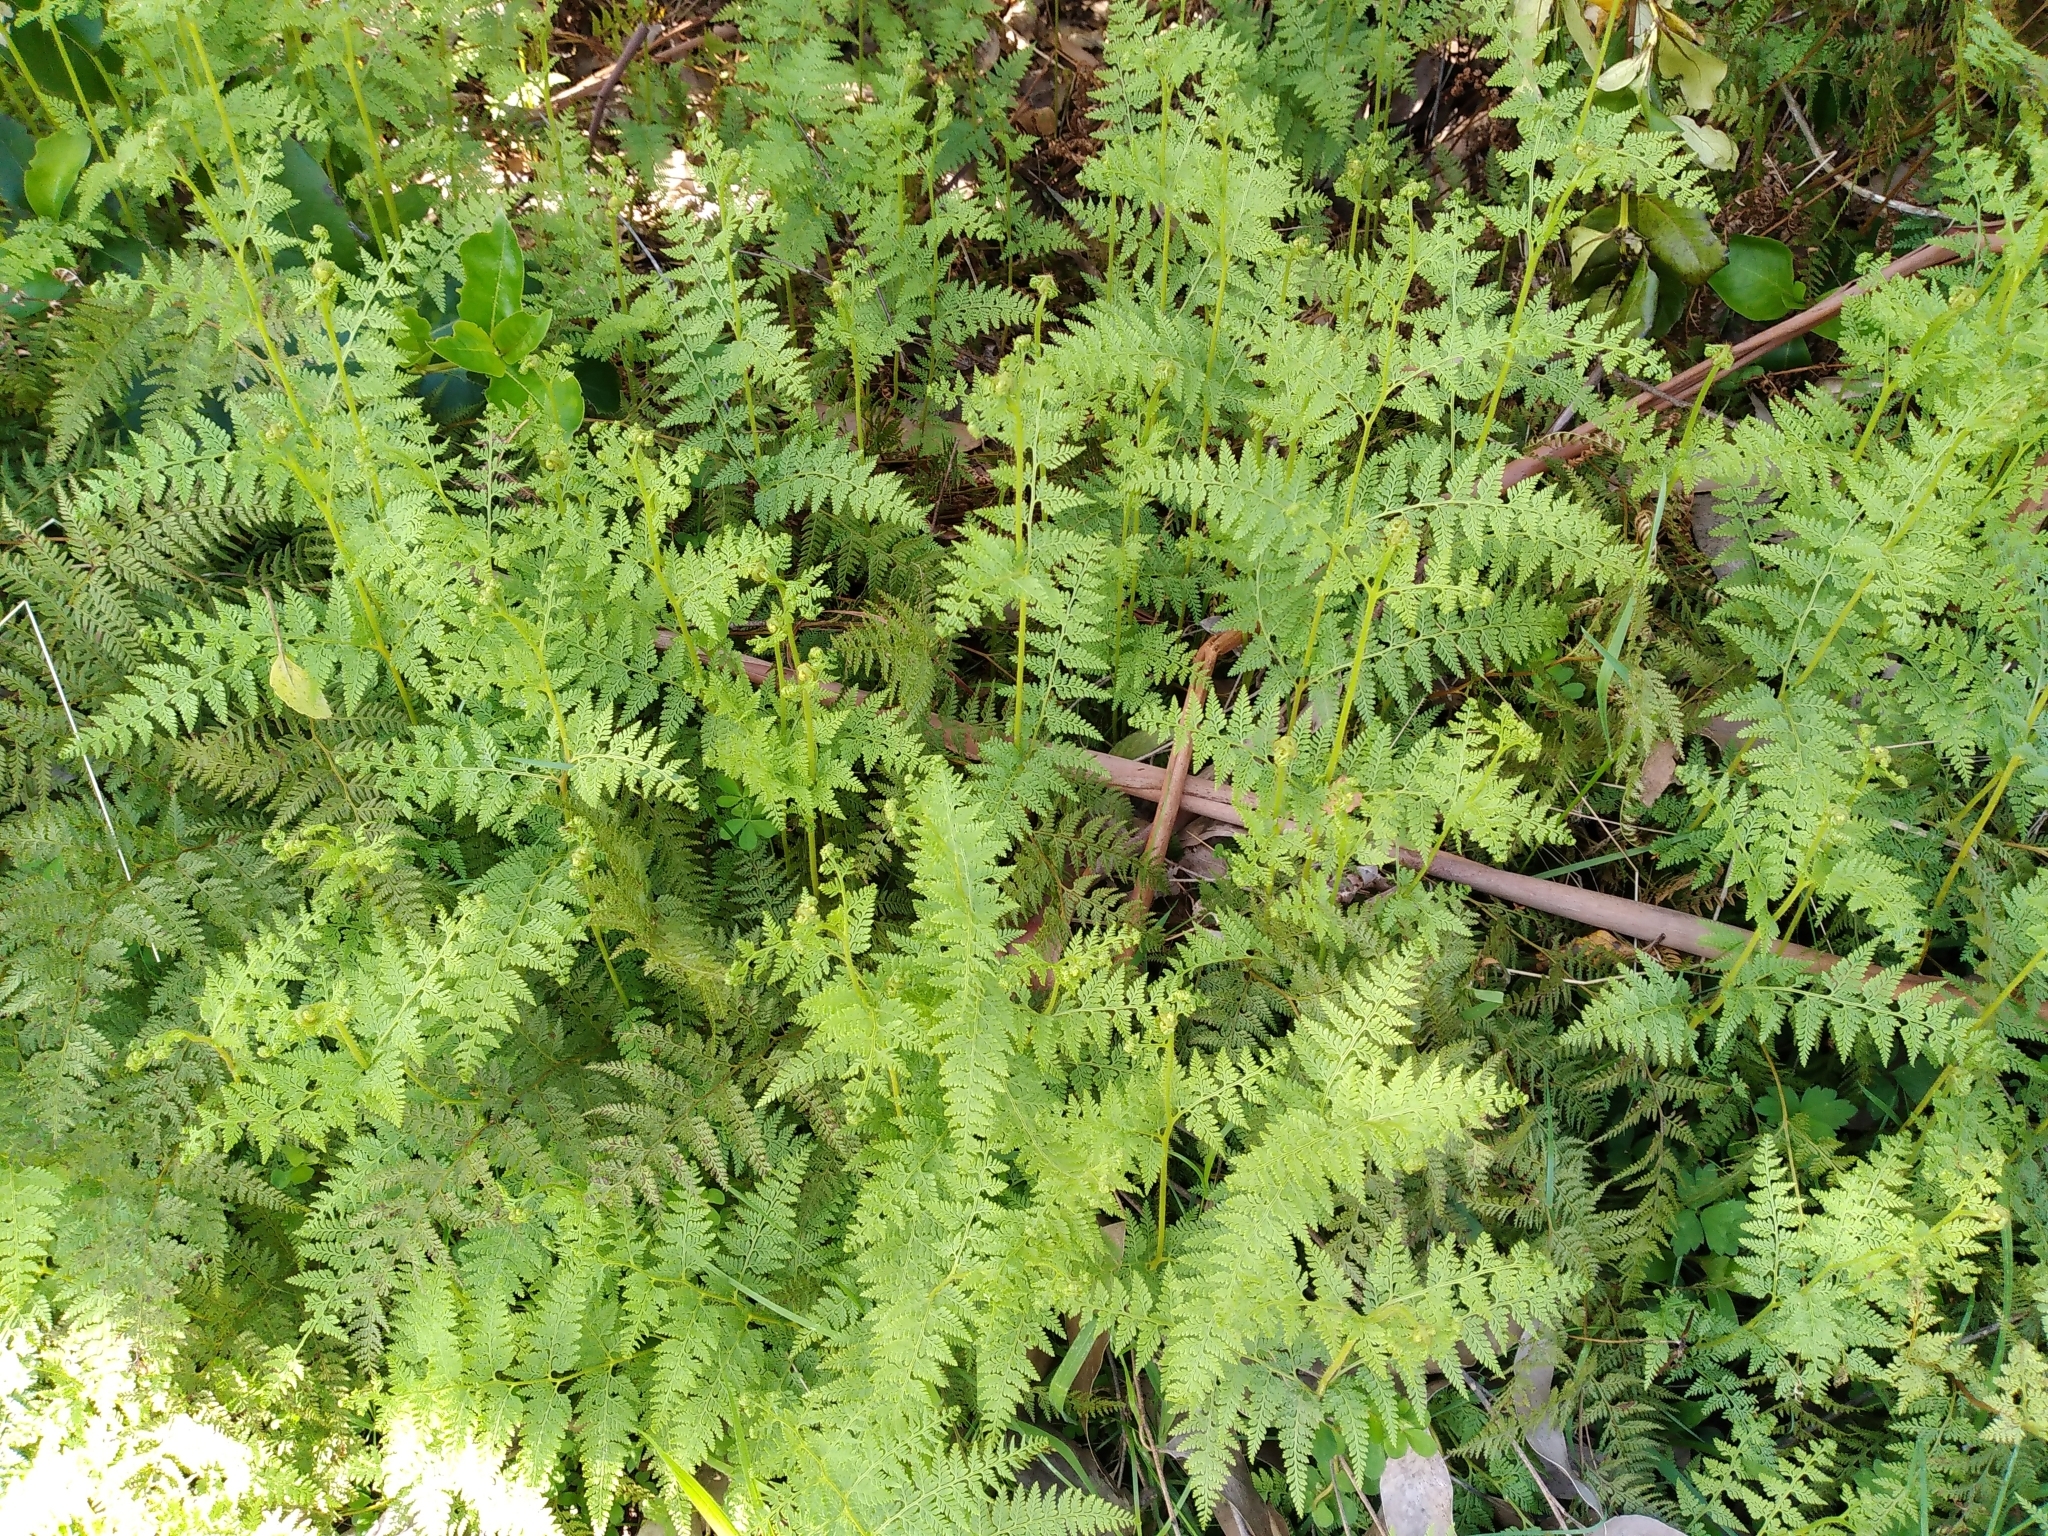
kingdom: Plantae
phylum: Tracheophyta
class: Polypodiopsida
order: Polypodiales
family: Dennstaedtiaceae
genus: Paesia
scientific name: Paesia scaberula
